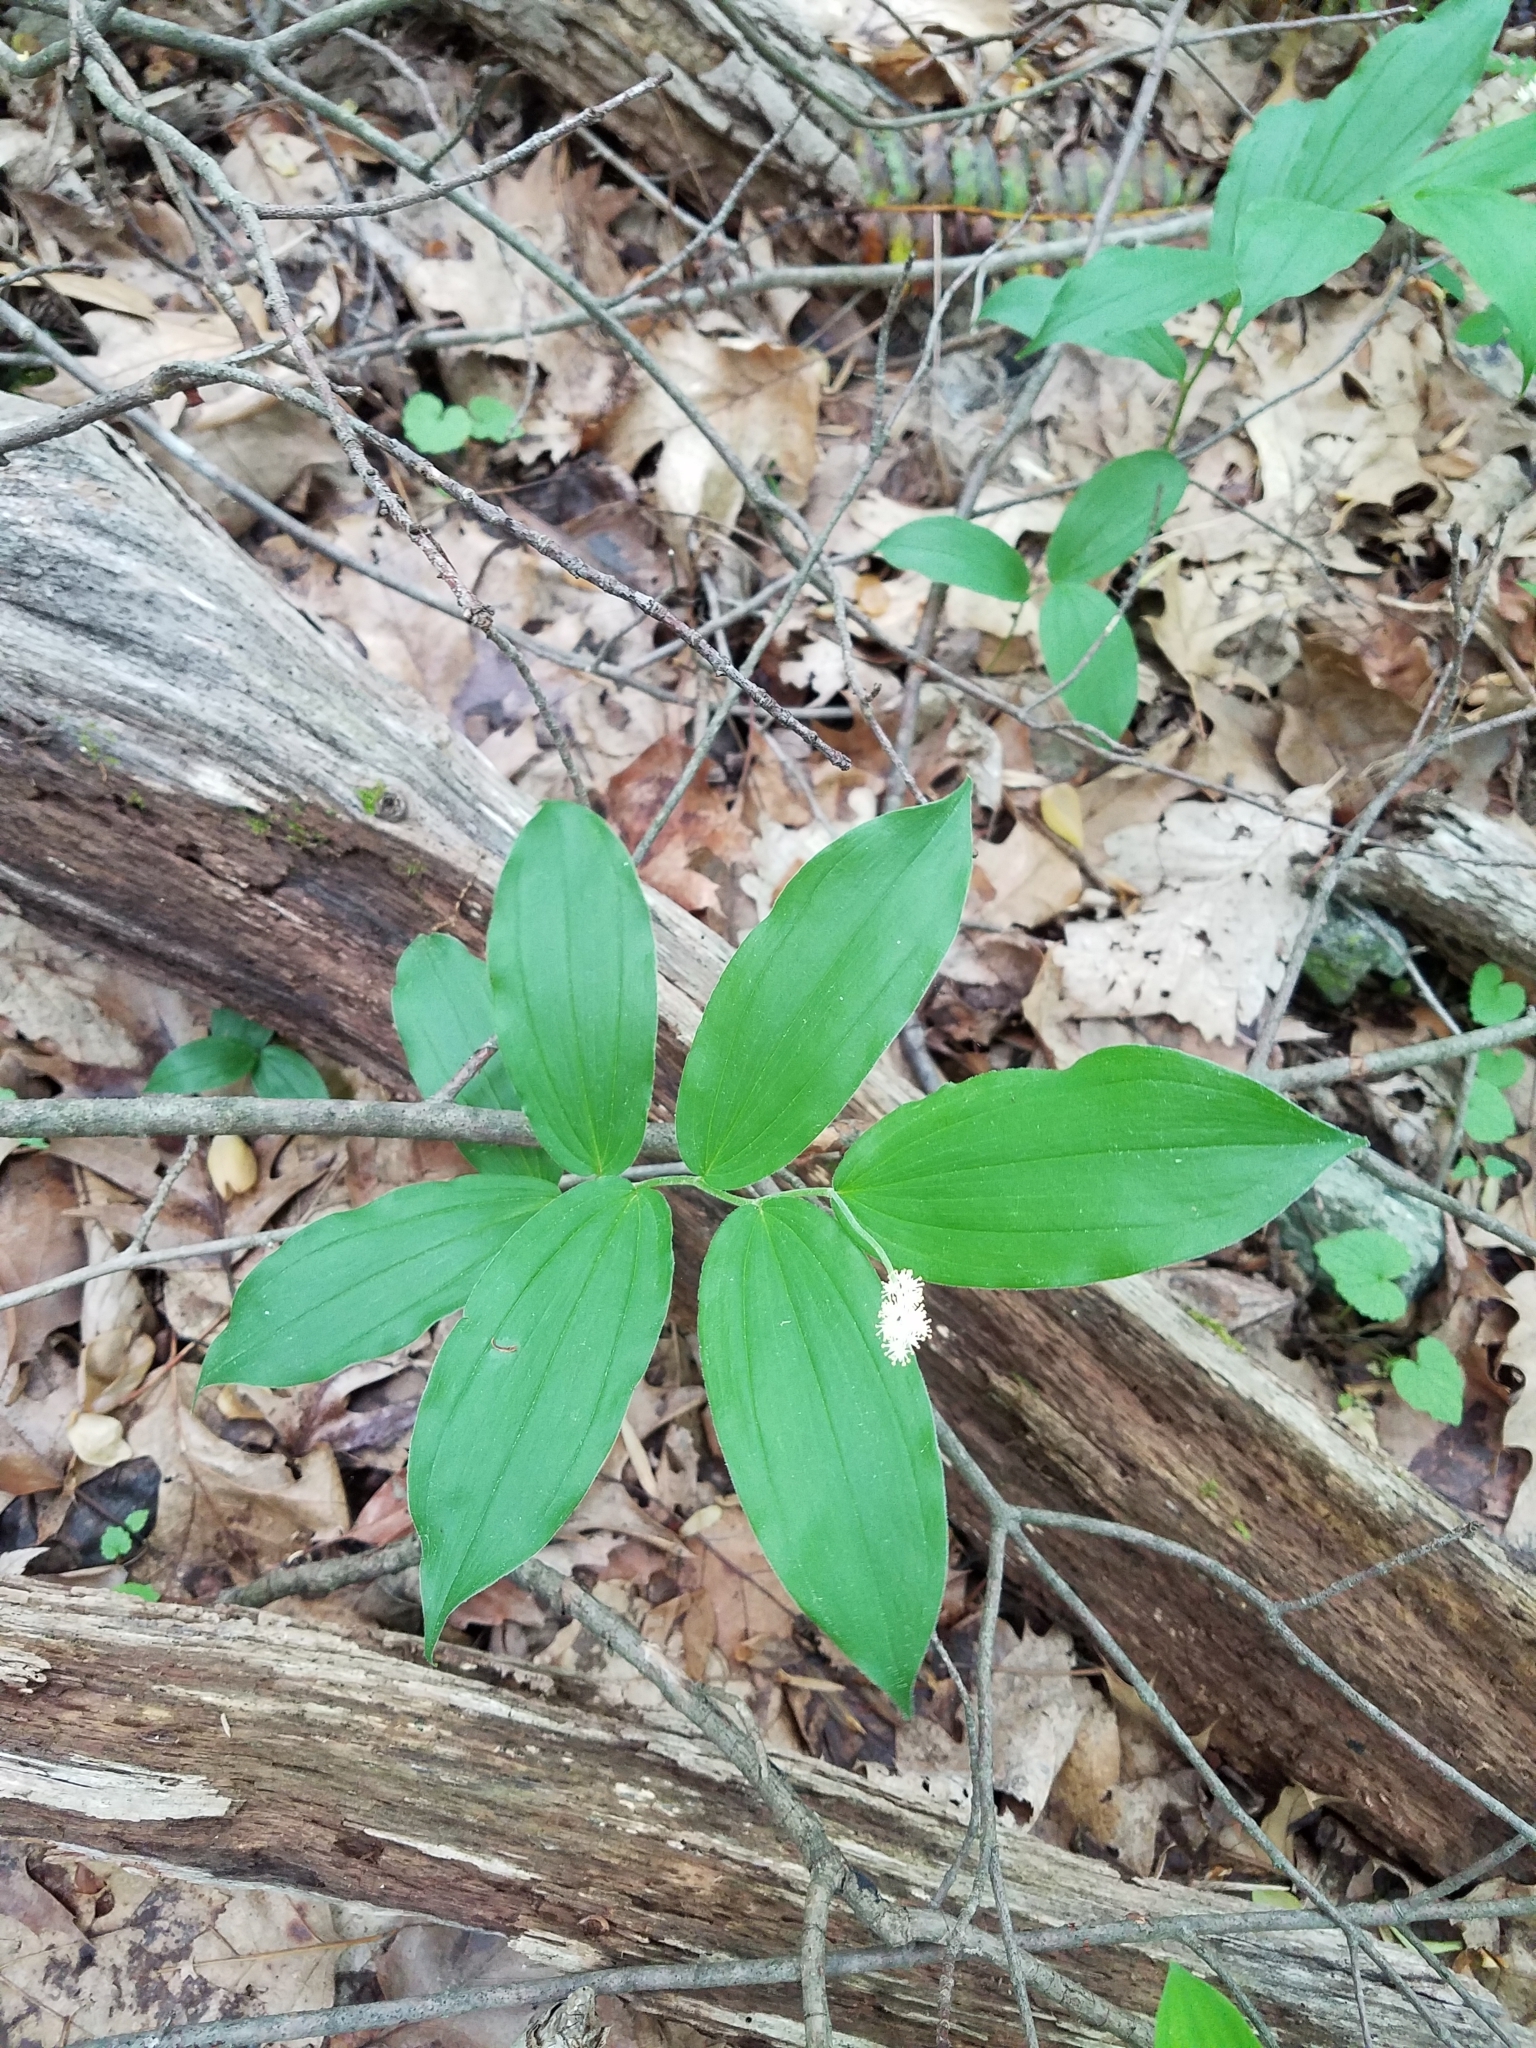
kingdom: Plantae
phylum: Tracheophyta
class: Liliopsida
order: Asparagales
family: Asparagaceae
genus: Maianthemum
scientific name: Maianthemum racemosum
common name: False spikenard
